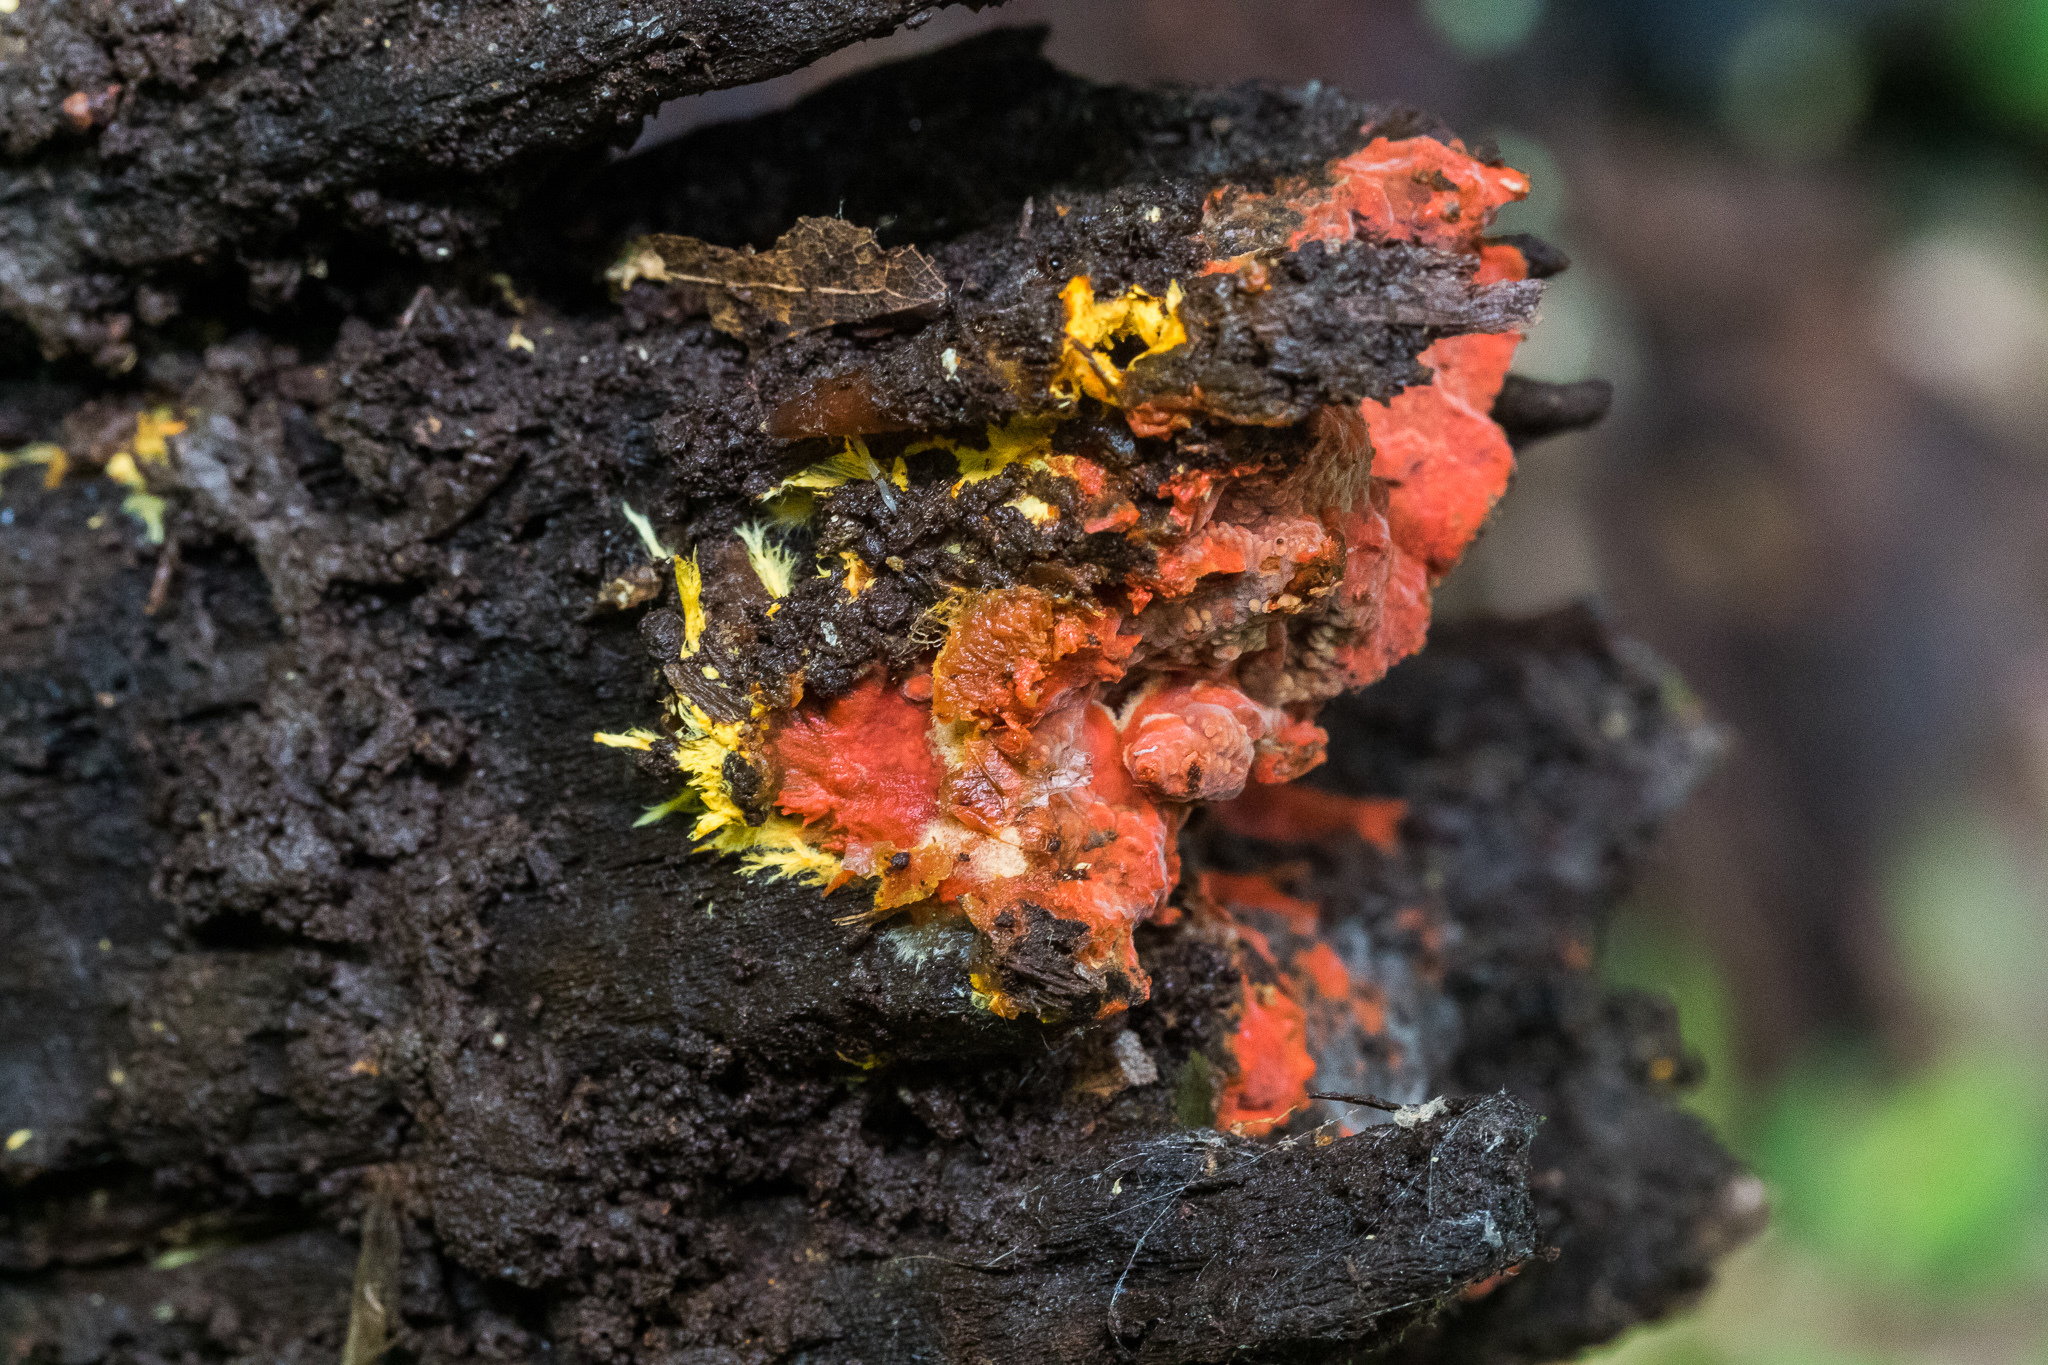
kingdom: Fungi
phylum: Basidiomycota
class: Agaricomycetes
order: Polyporales
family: Meruliaceae
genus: Hydnophlebia
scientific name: Hydnophlebia chrysorhiza
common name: Spreading yellow tooth
